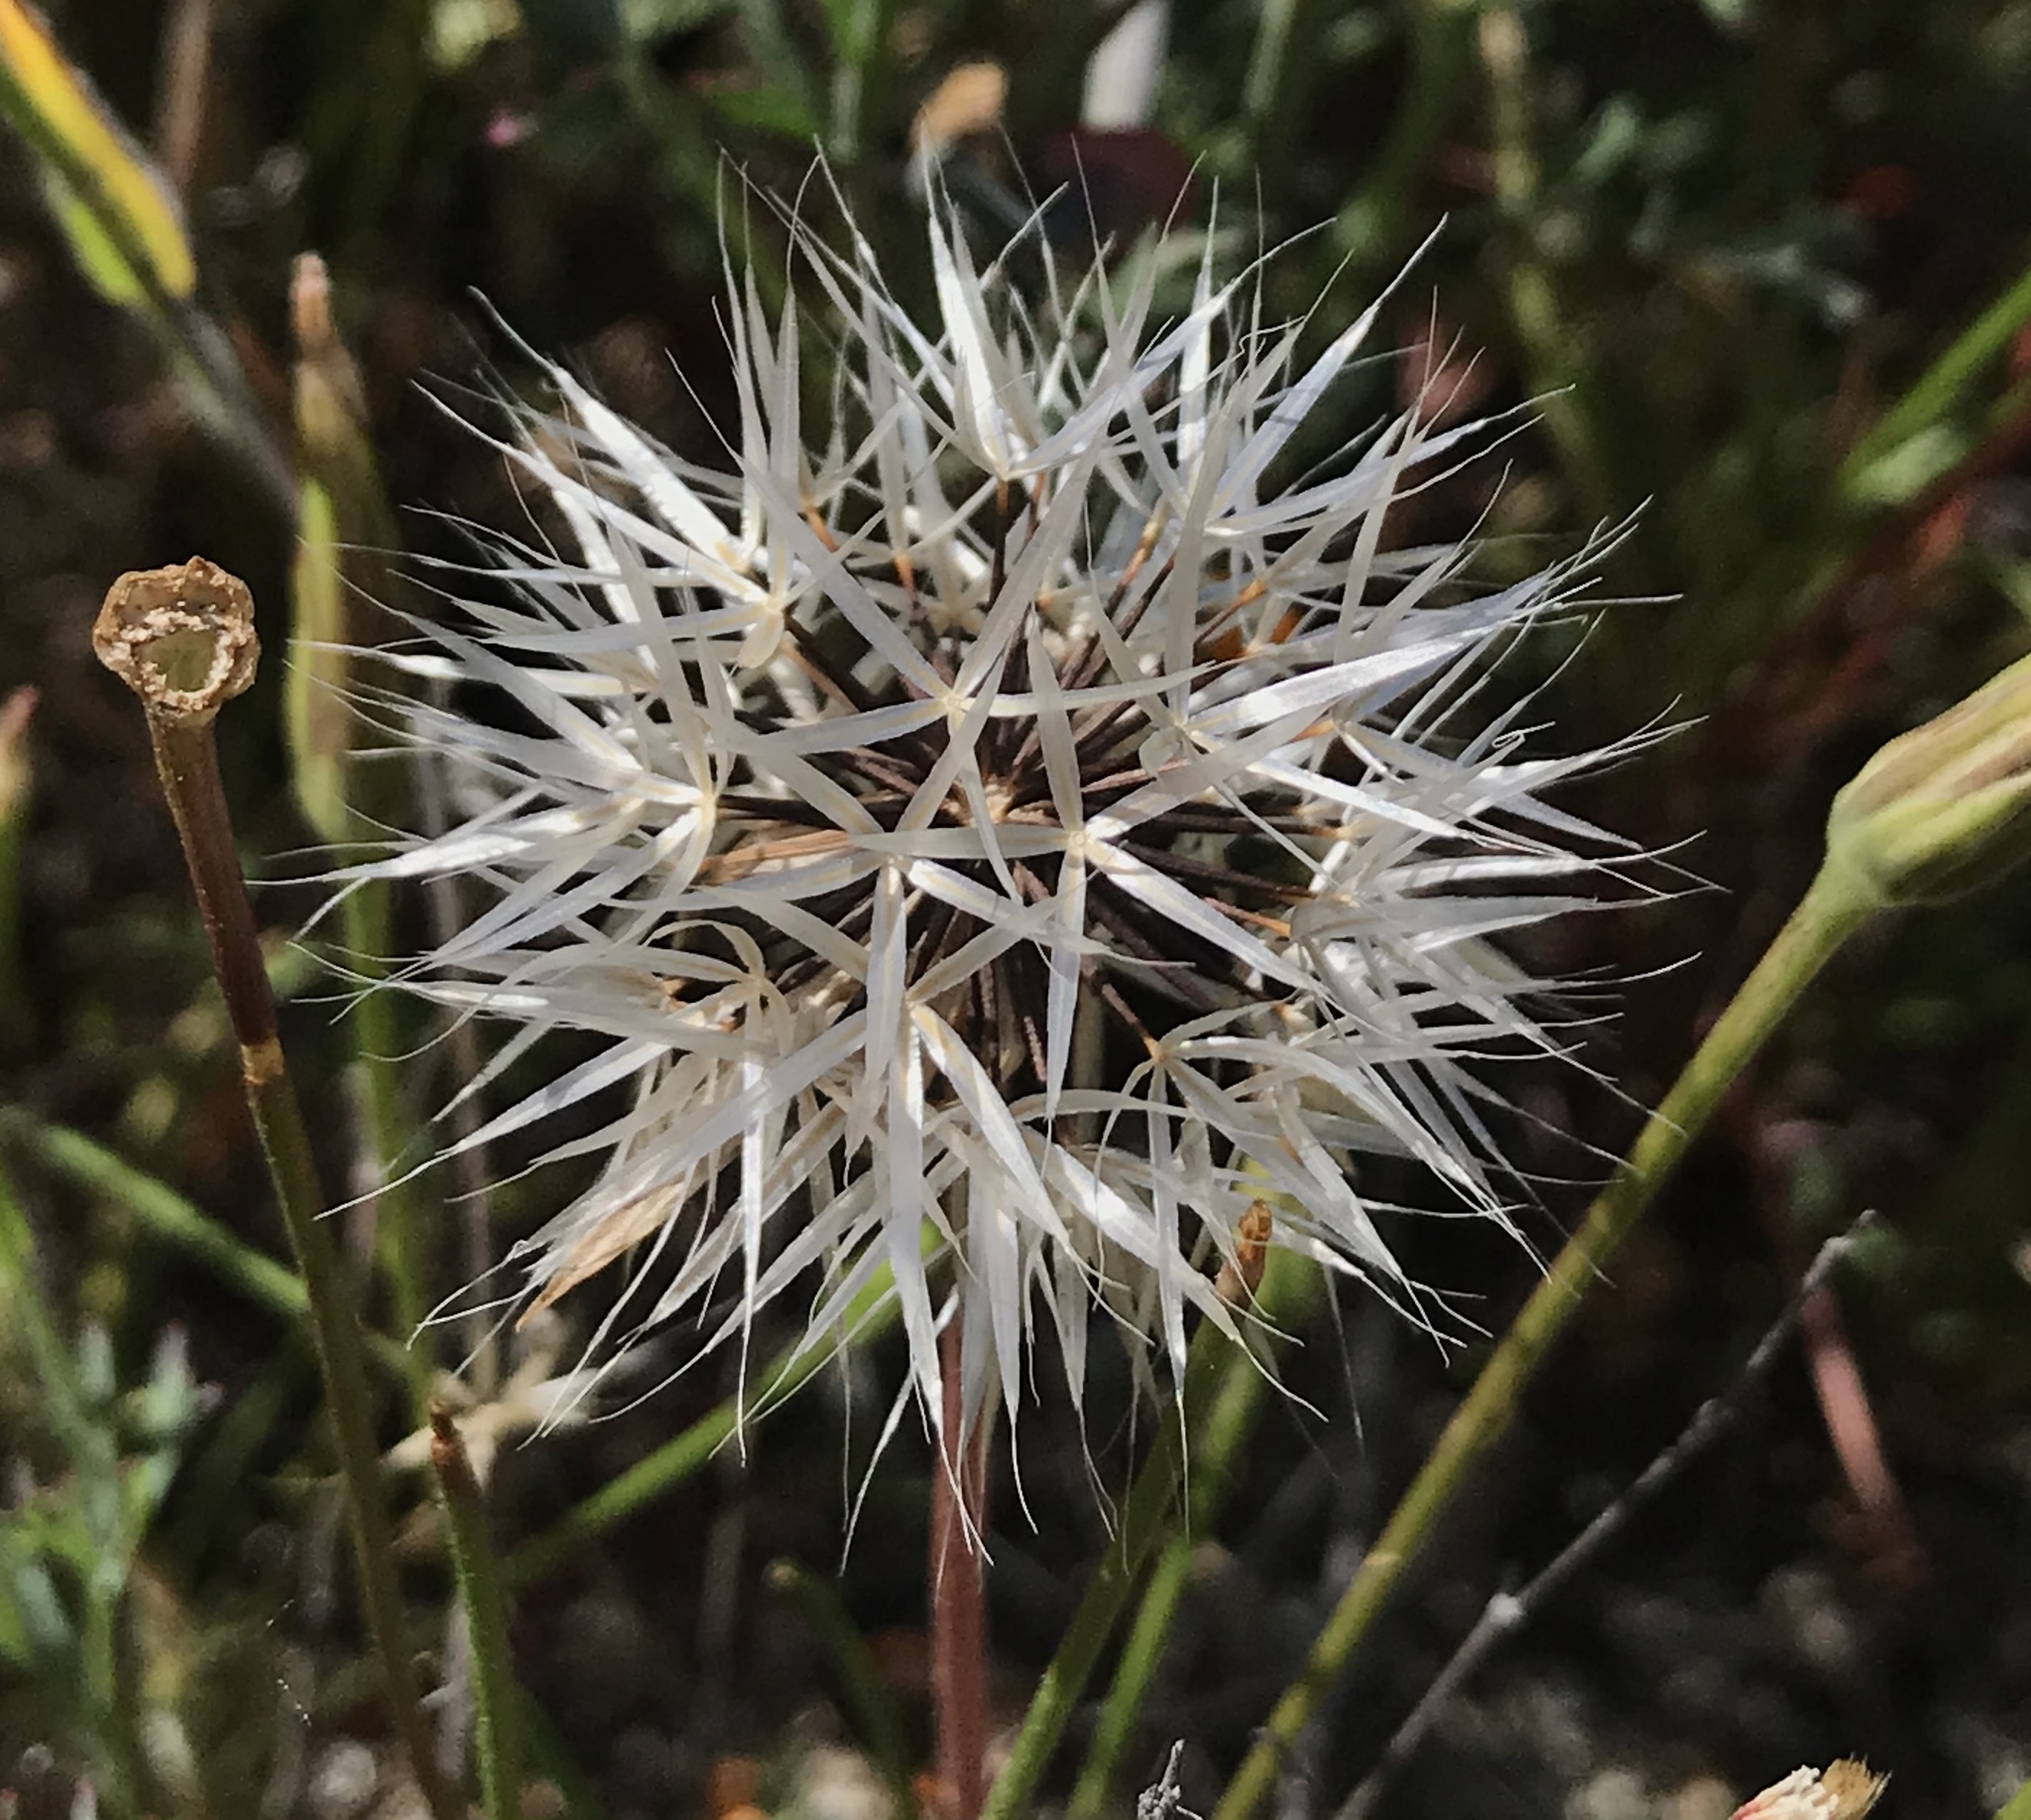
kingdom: Plantae
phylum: Tracheophyta
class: Magnoliopsida
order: Asterales
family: Asteraceae
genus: Microseris
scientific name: Microseris lindleyi
